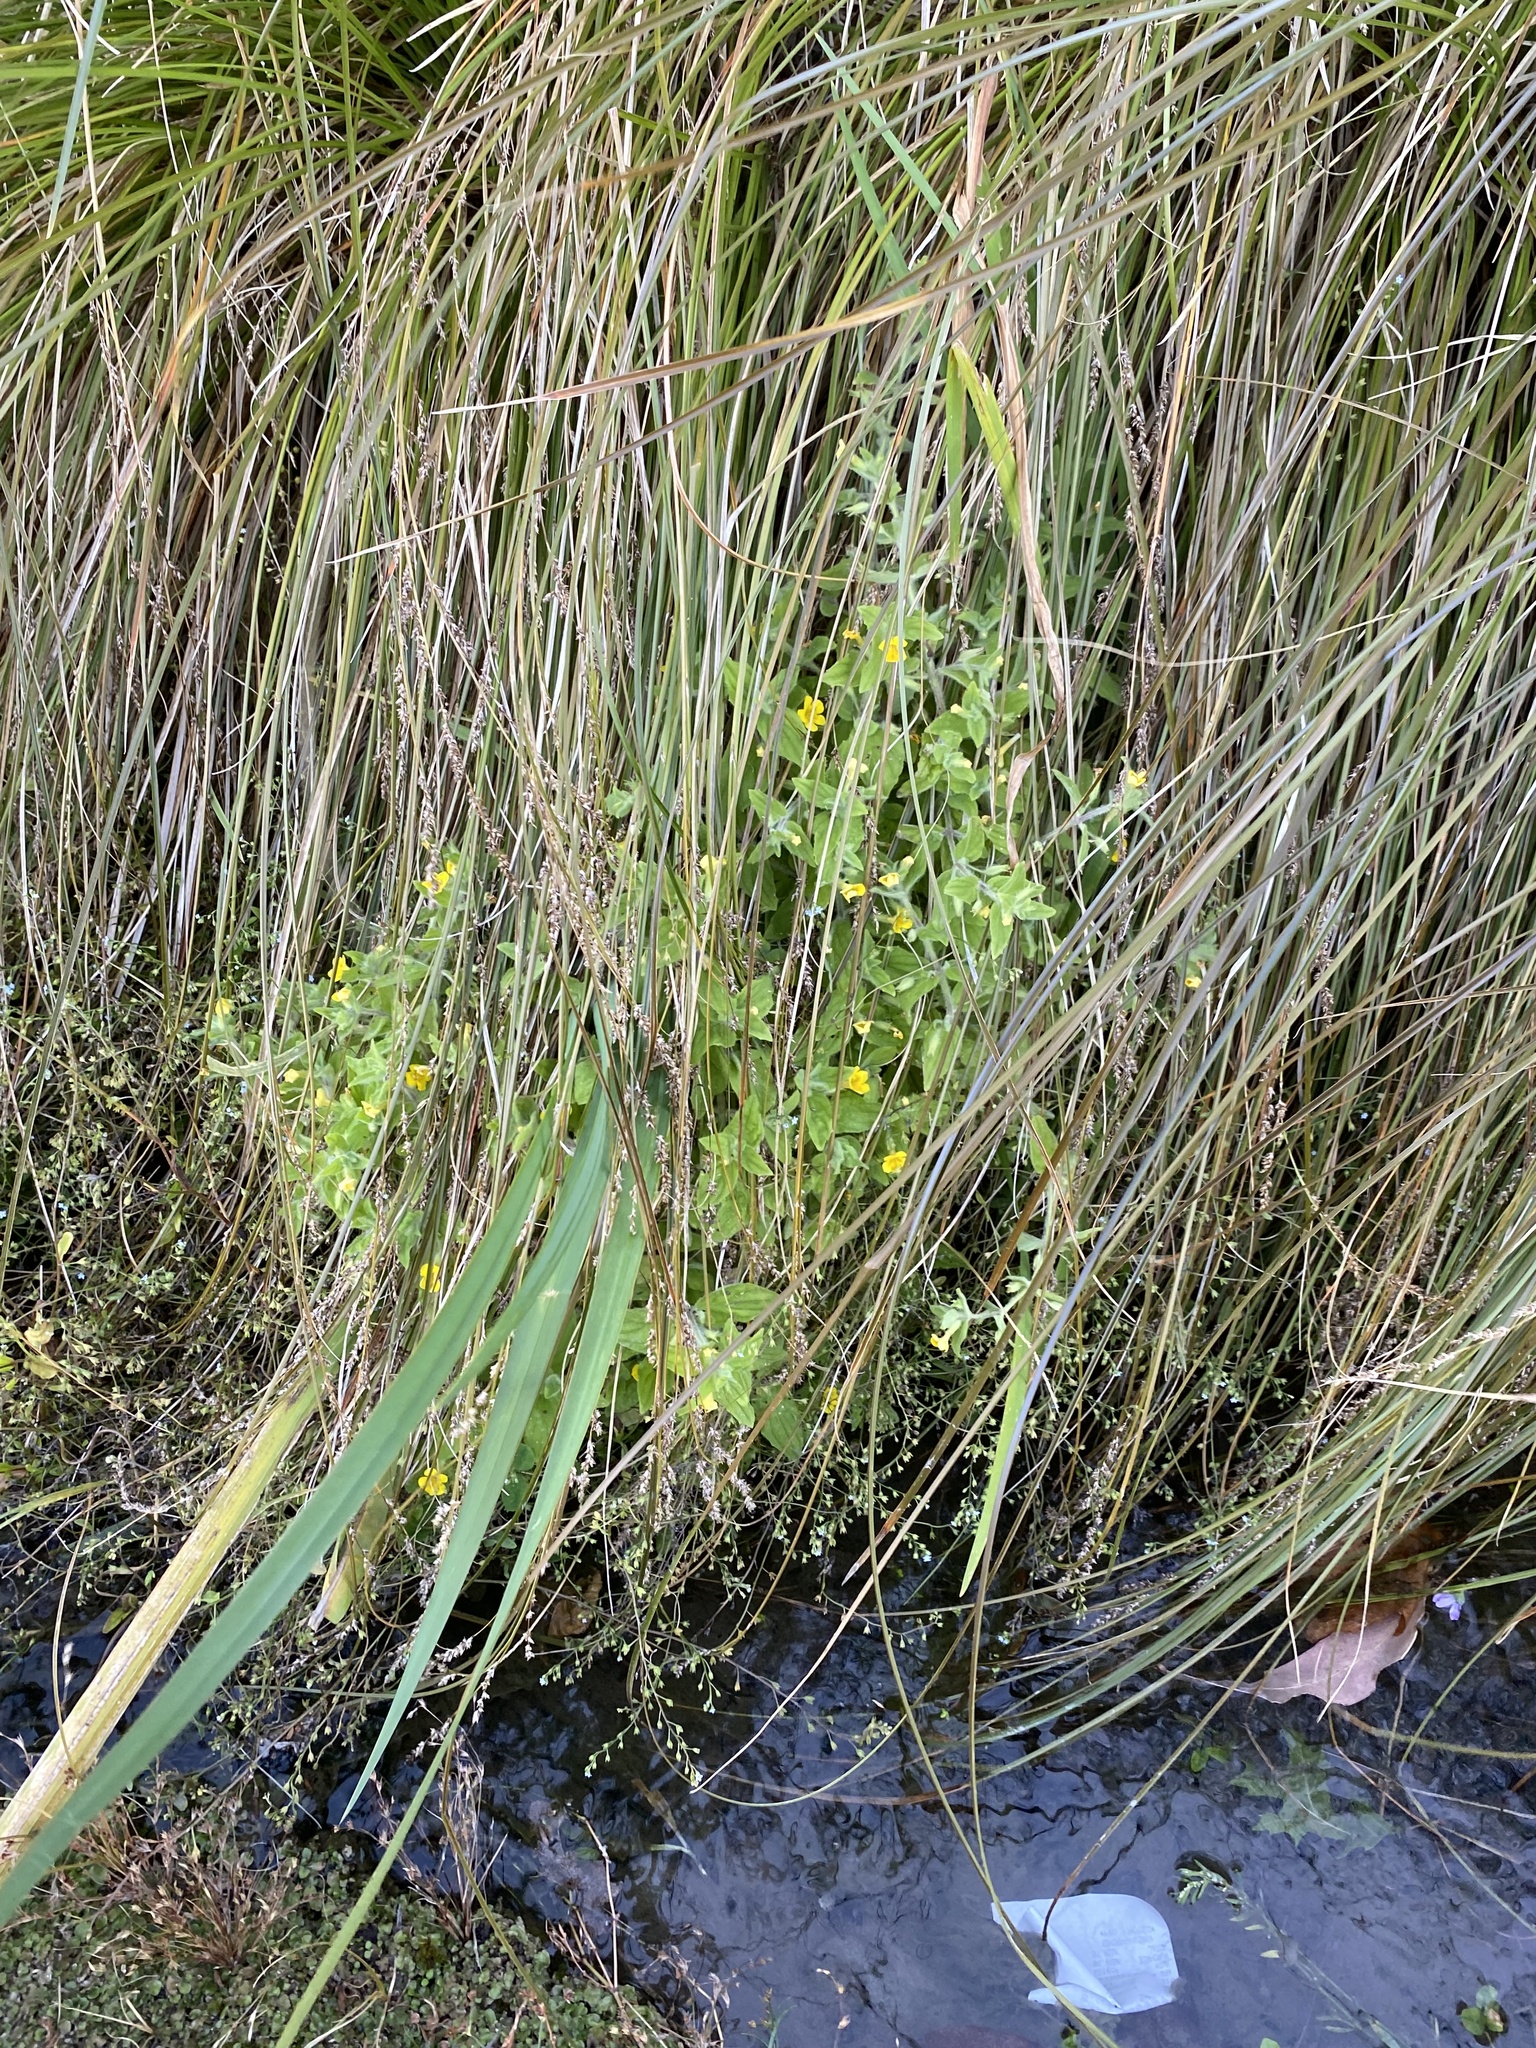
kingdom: Plantae
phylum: Tracheophyta
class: Magnoliopsida
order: Lamiales
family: Phrymaceae
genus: Erythranthe
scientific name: Erythranthe moschata
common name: Muskflower
